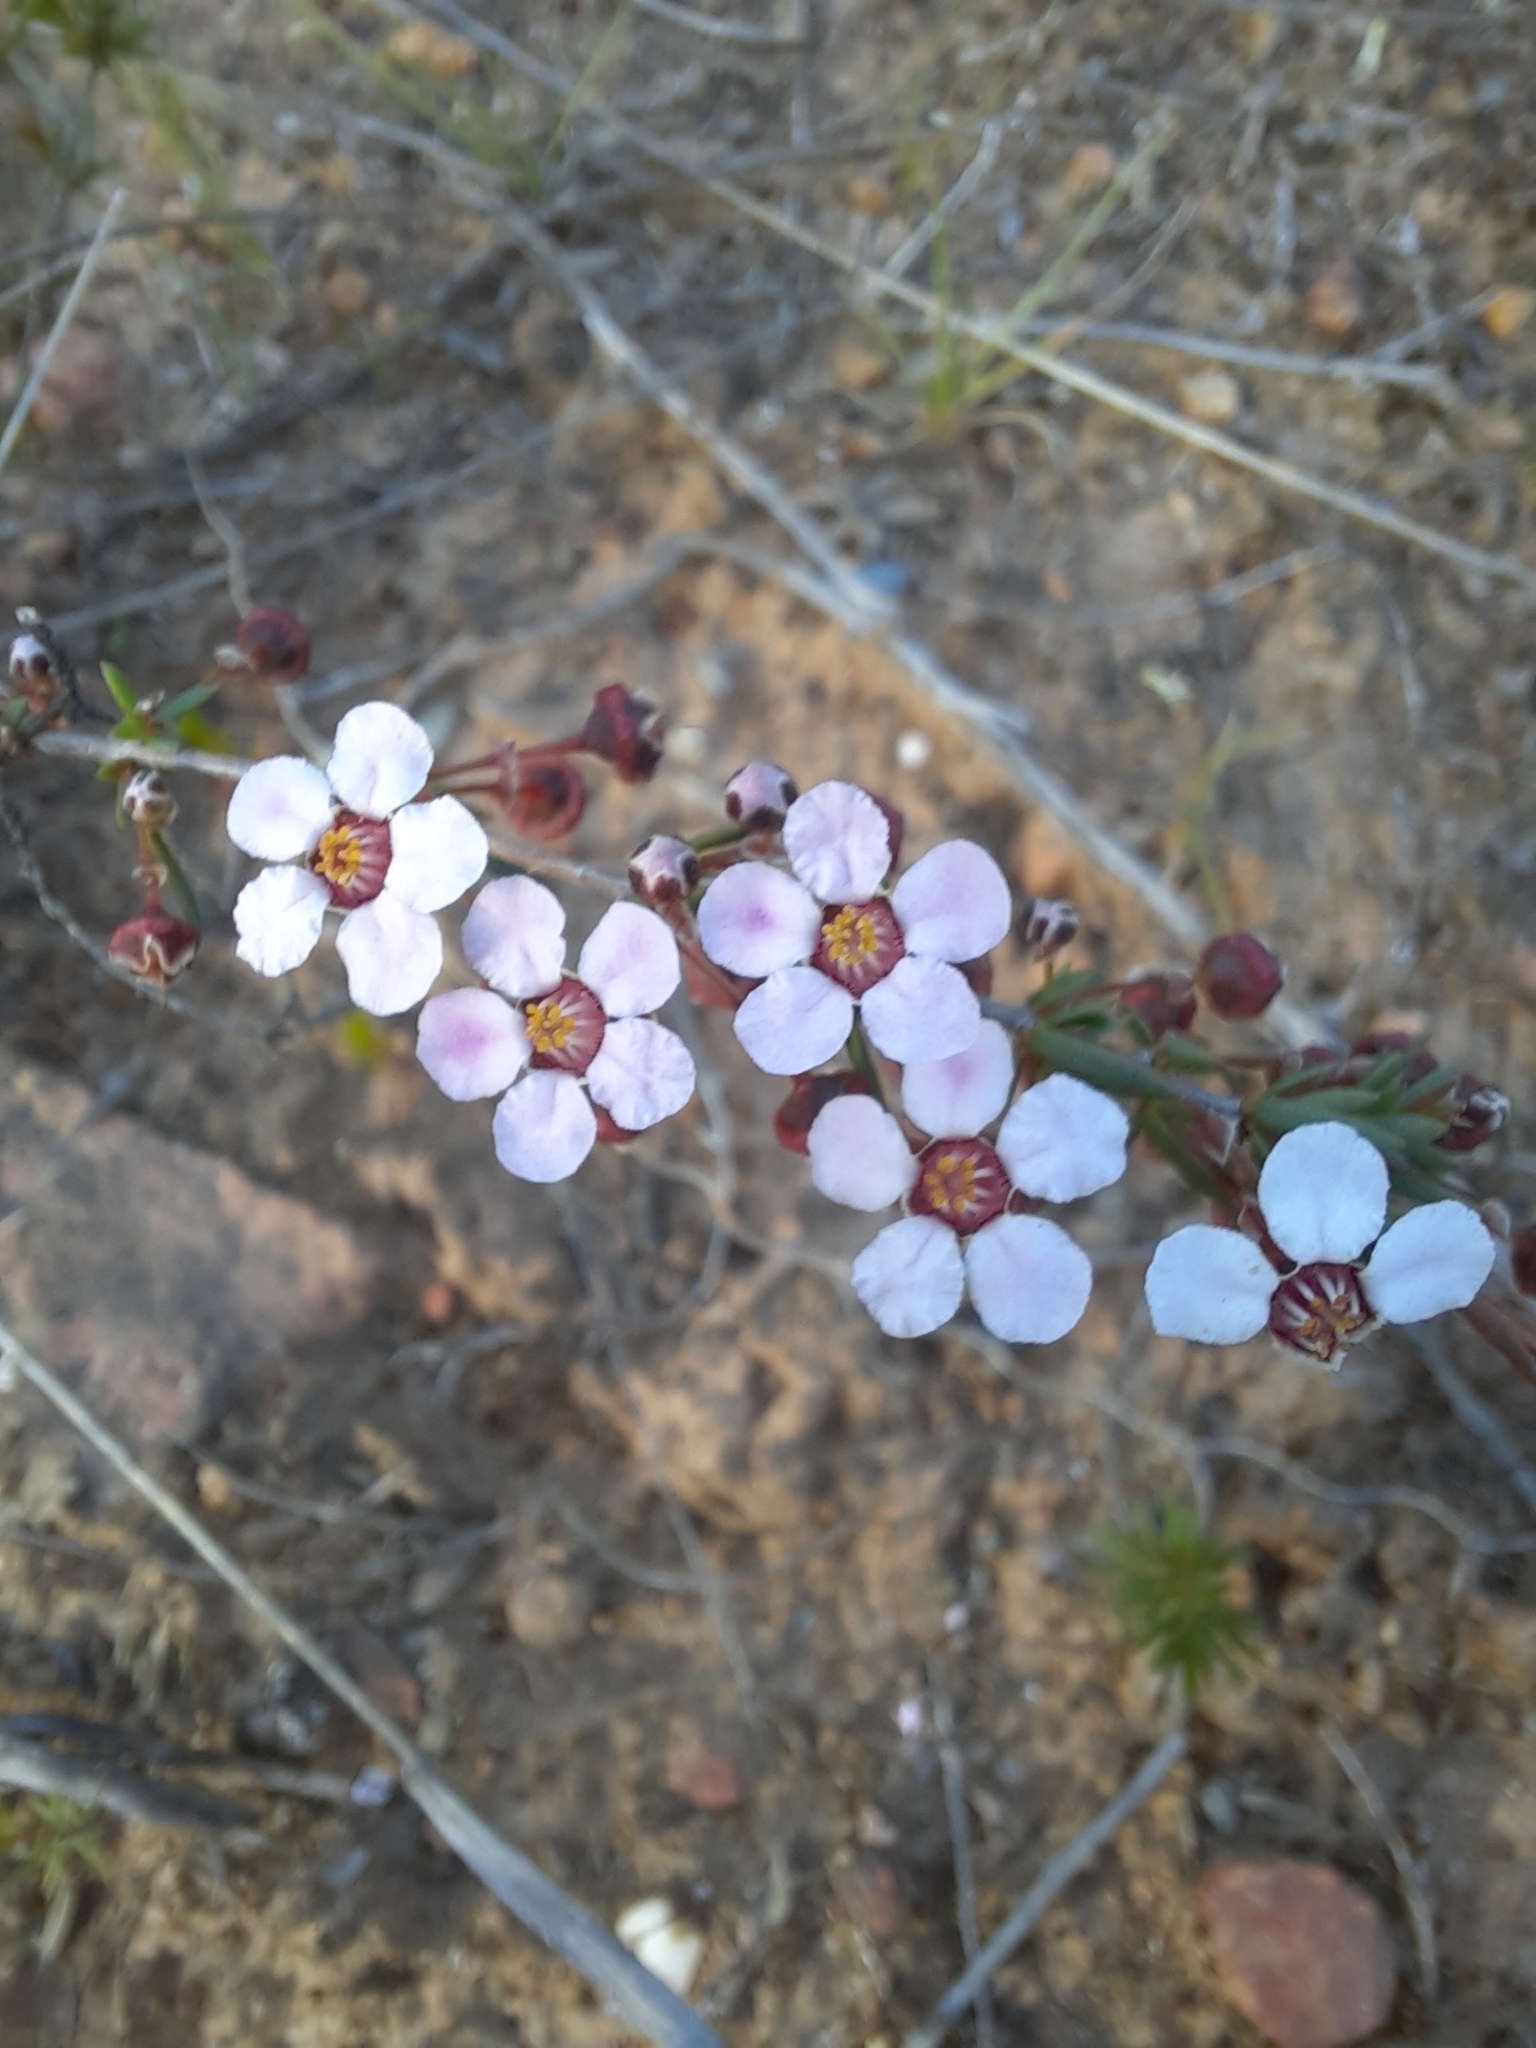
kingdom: Plantae
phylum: Tracheophyta
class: Magnoliopsida
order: Myrtales
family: Myrtaceae
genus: Euryomyrtus
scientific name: Euryomyrtus ramosissima
